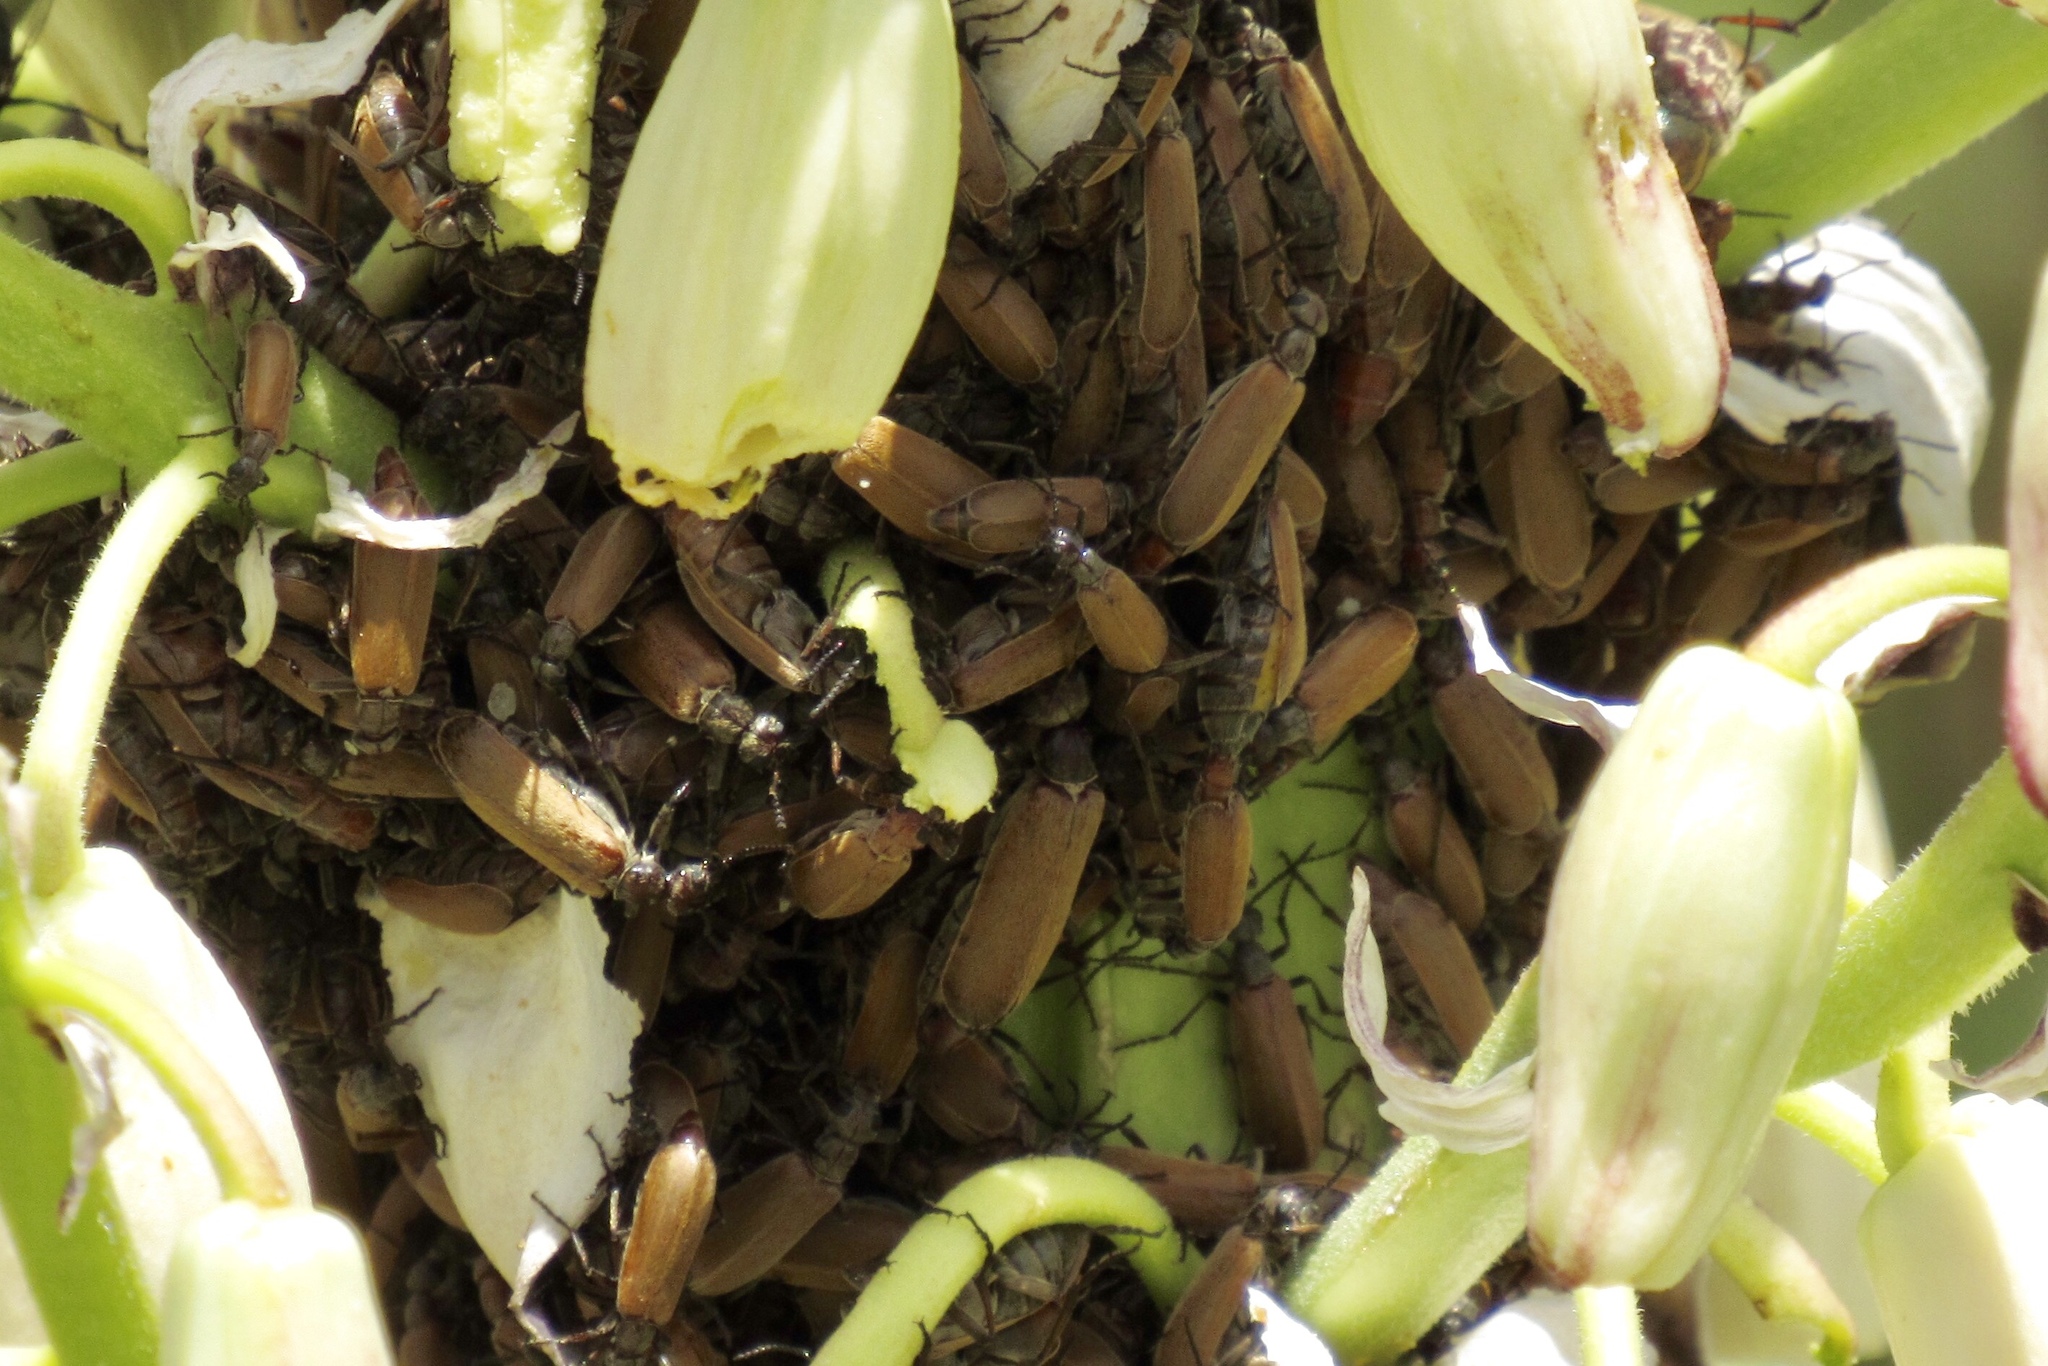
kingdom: Animalia
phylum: Arthropoda
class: Insecta
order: Coleoptera
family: Meloidae
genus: Epicauta
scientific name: Epicauta ochrea
